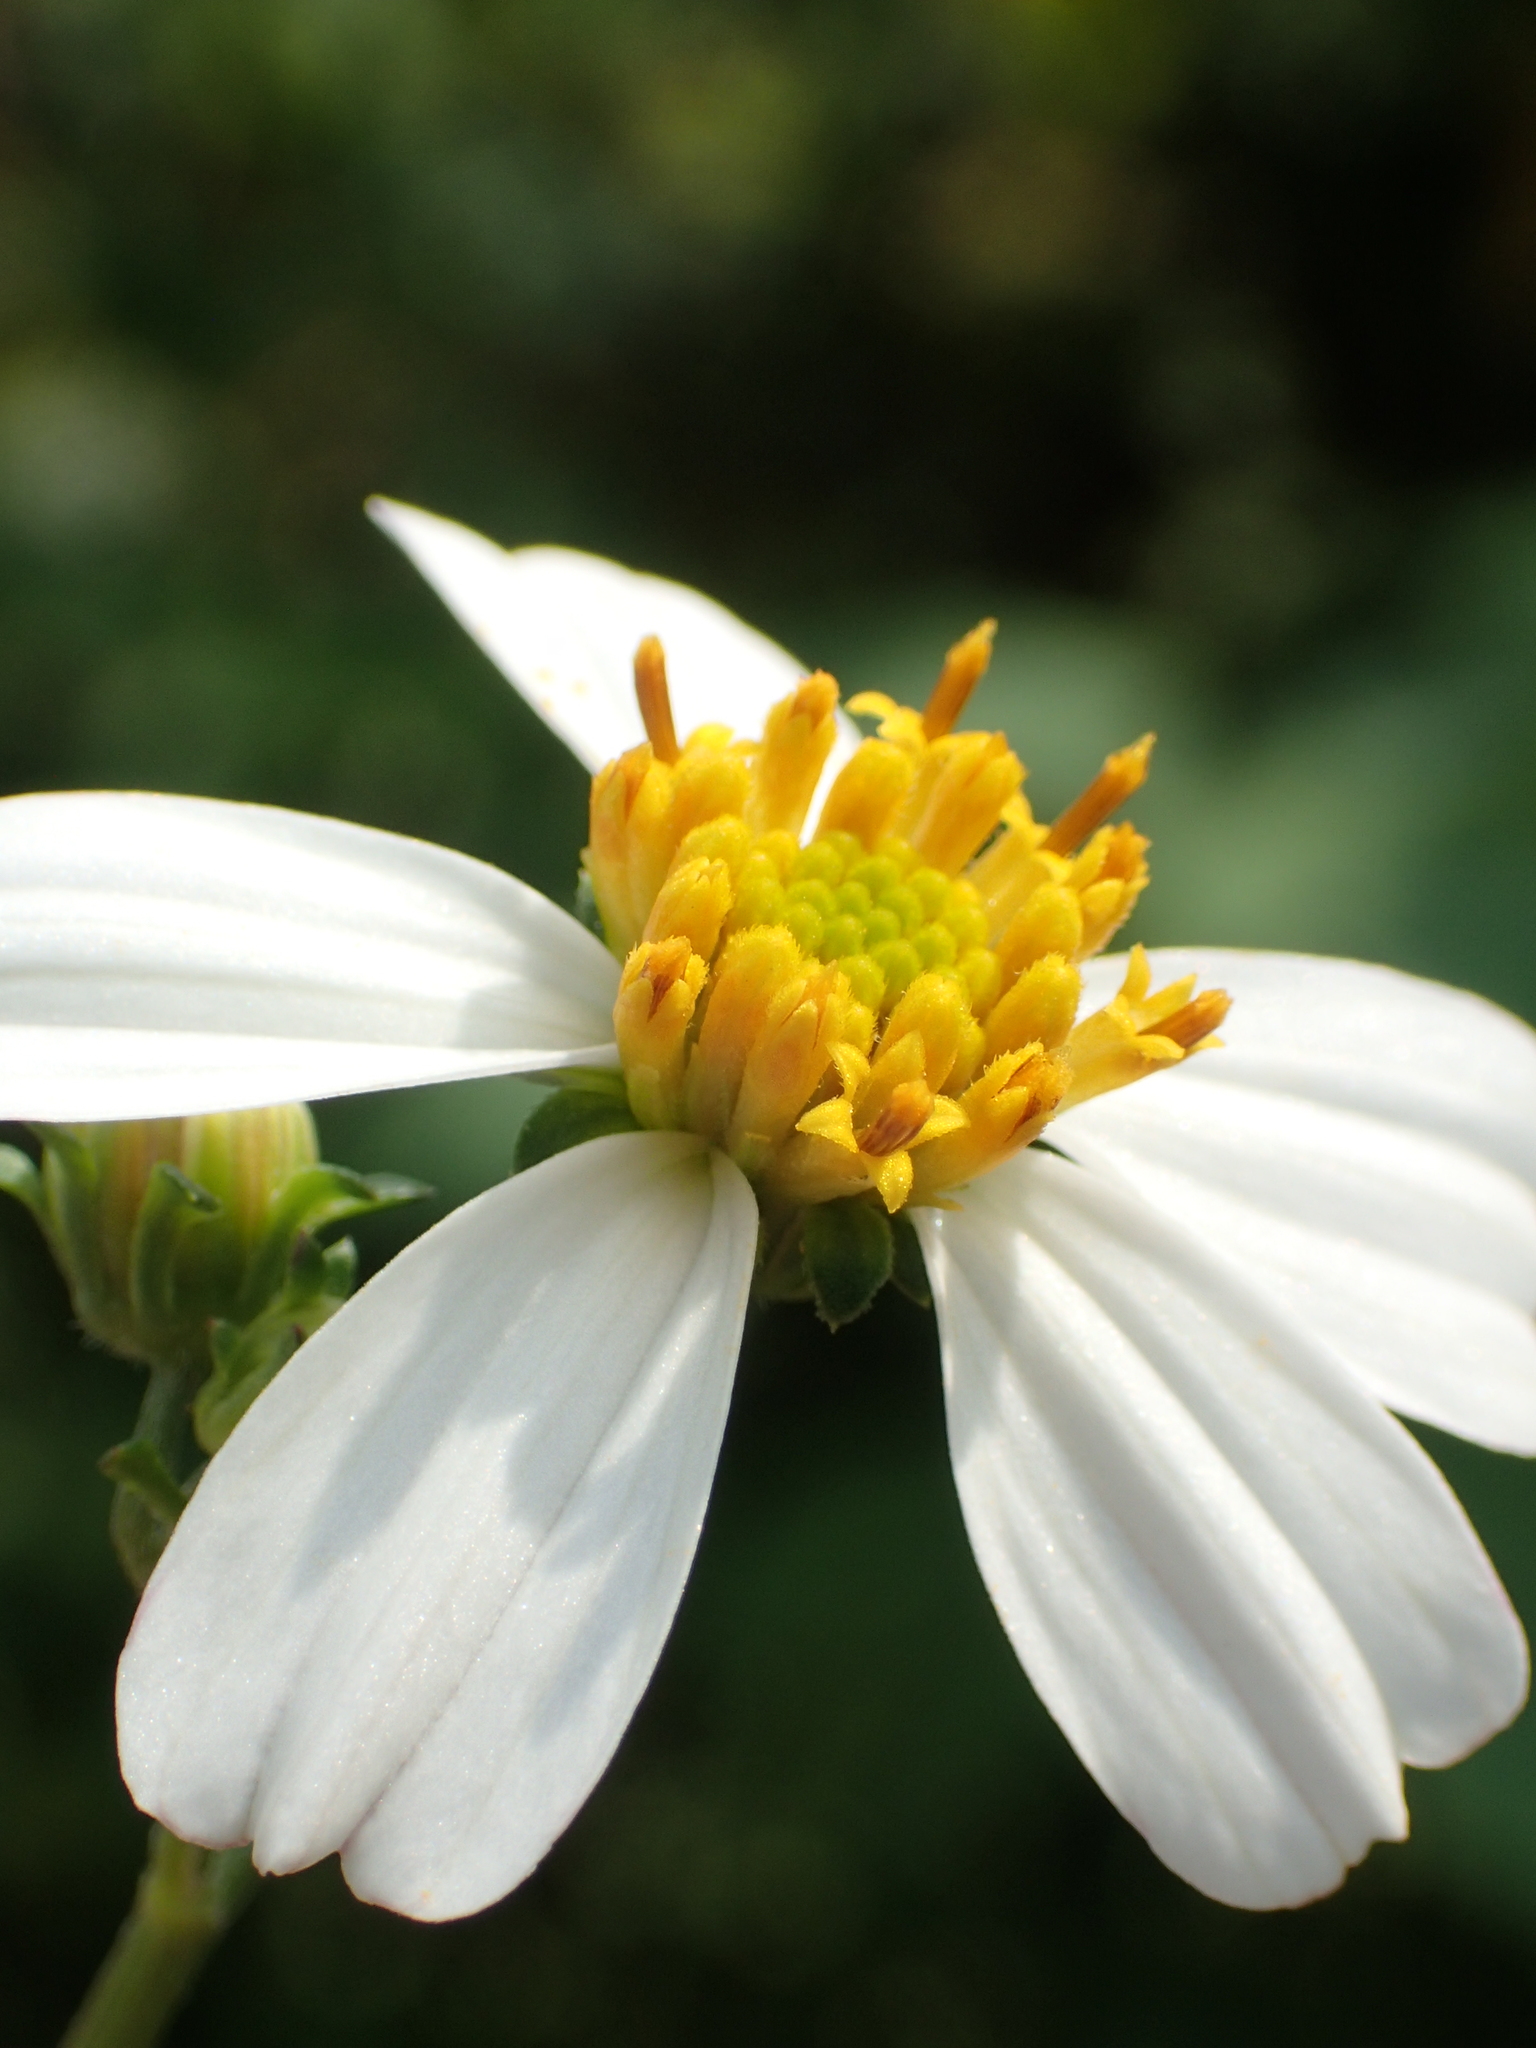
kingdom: Plantae
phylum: Tracheophyta
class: Magnoliopsida
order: Asterales
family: Asteraceae
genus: Bidens
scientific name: Bidens alba
